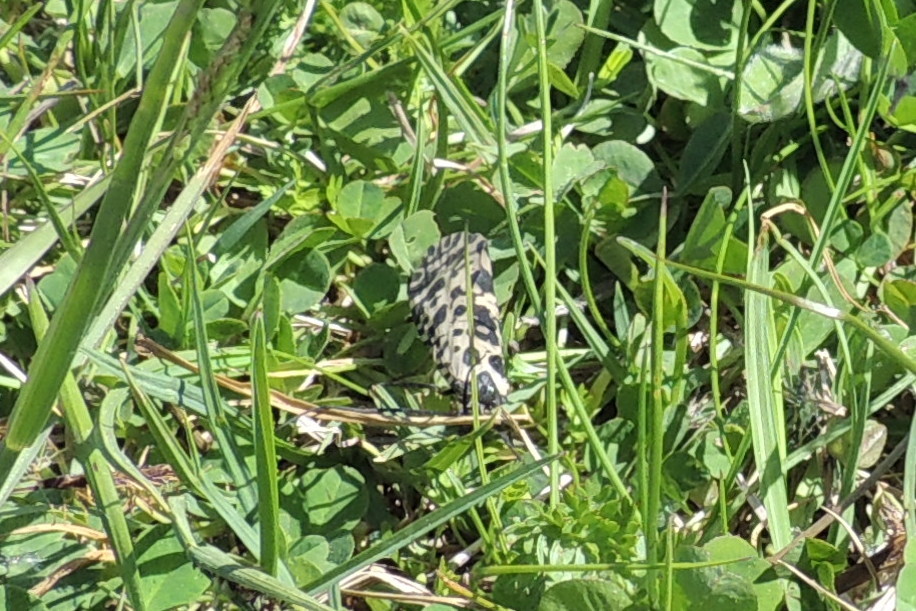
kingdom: Animalia
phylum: Arthropoda
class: Insecta
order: Trichoptera
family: Phryganeidae
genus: Semblis
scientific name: Semblis phalaenoides
